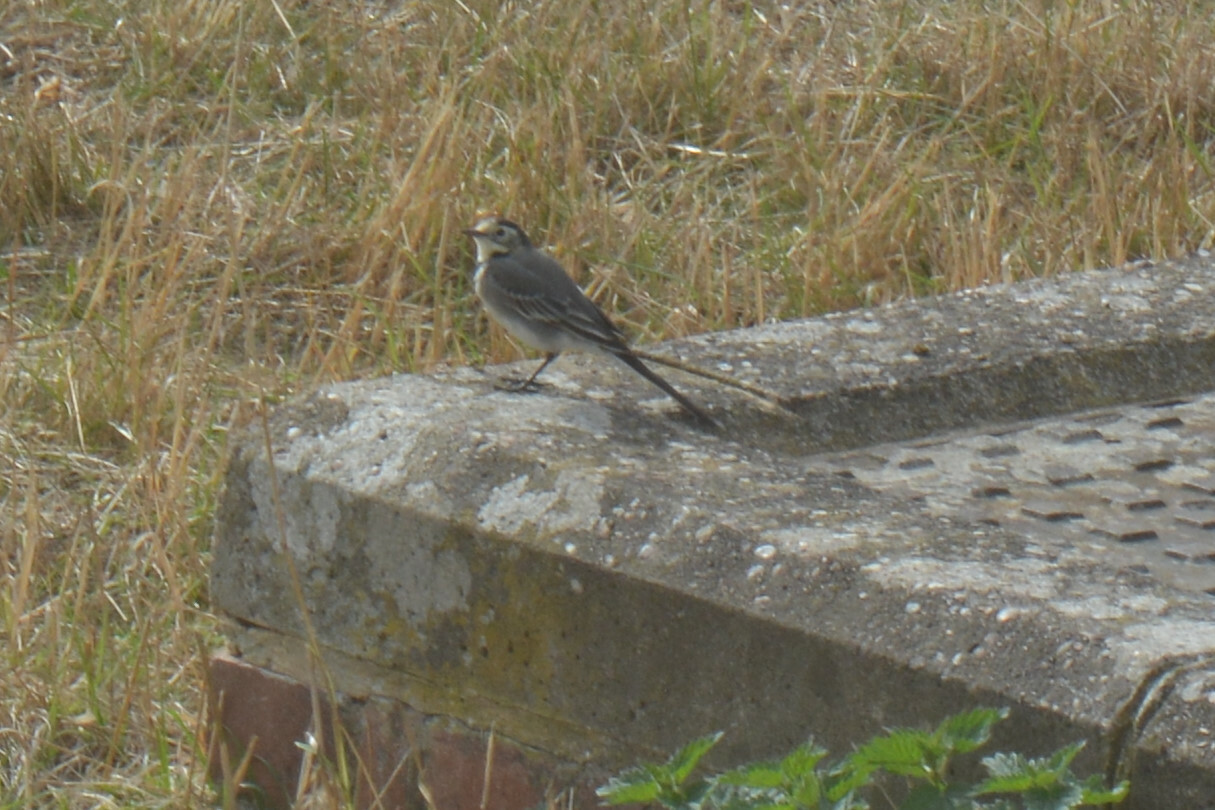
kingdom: Animalia
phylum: Chordata
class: Aves
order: Passeriformes
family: Motacillidae
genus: Motacilla
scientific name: Motacilla alba
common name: White wagtail
